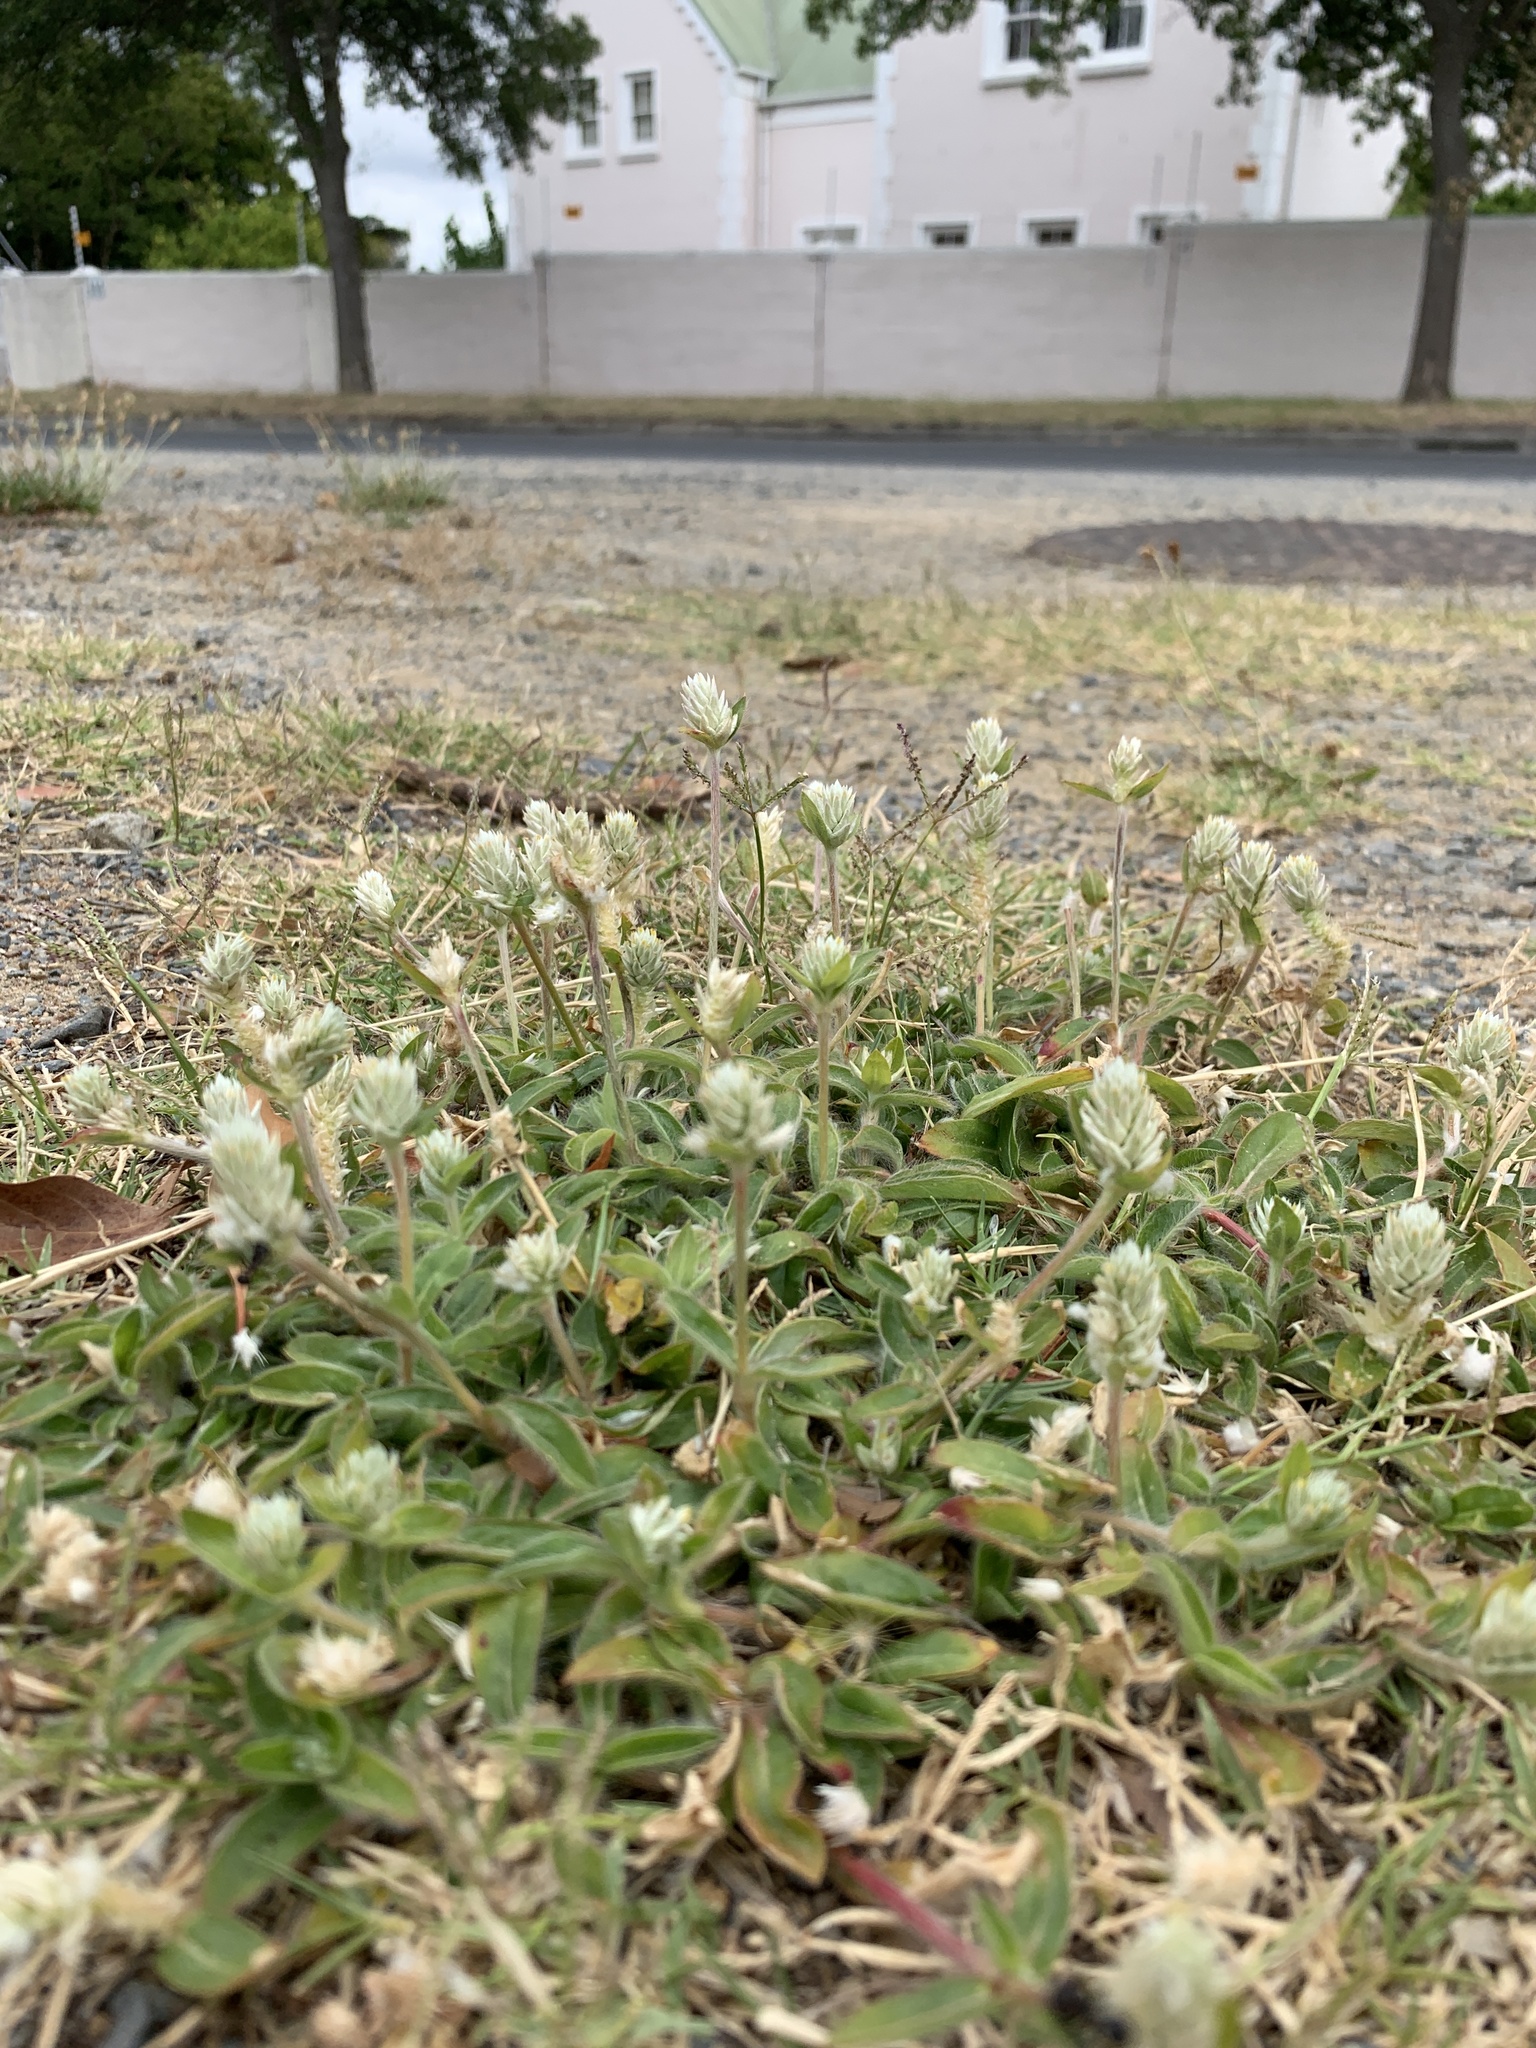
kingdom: Plantae
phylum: Tracheophyta
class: Magnoliopsida
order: Caryophyllales
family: Amaranthaceae
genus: Gomphrena
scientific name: Gomphrena celosioides
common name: Gomphrena-weed
